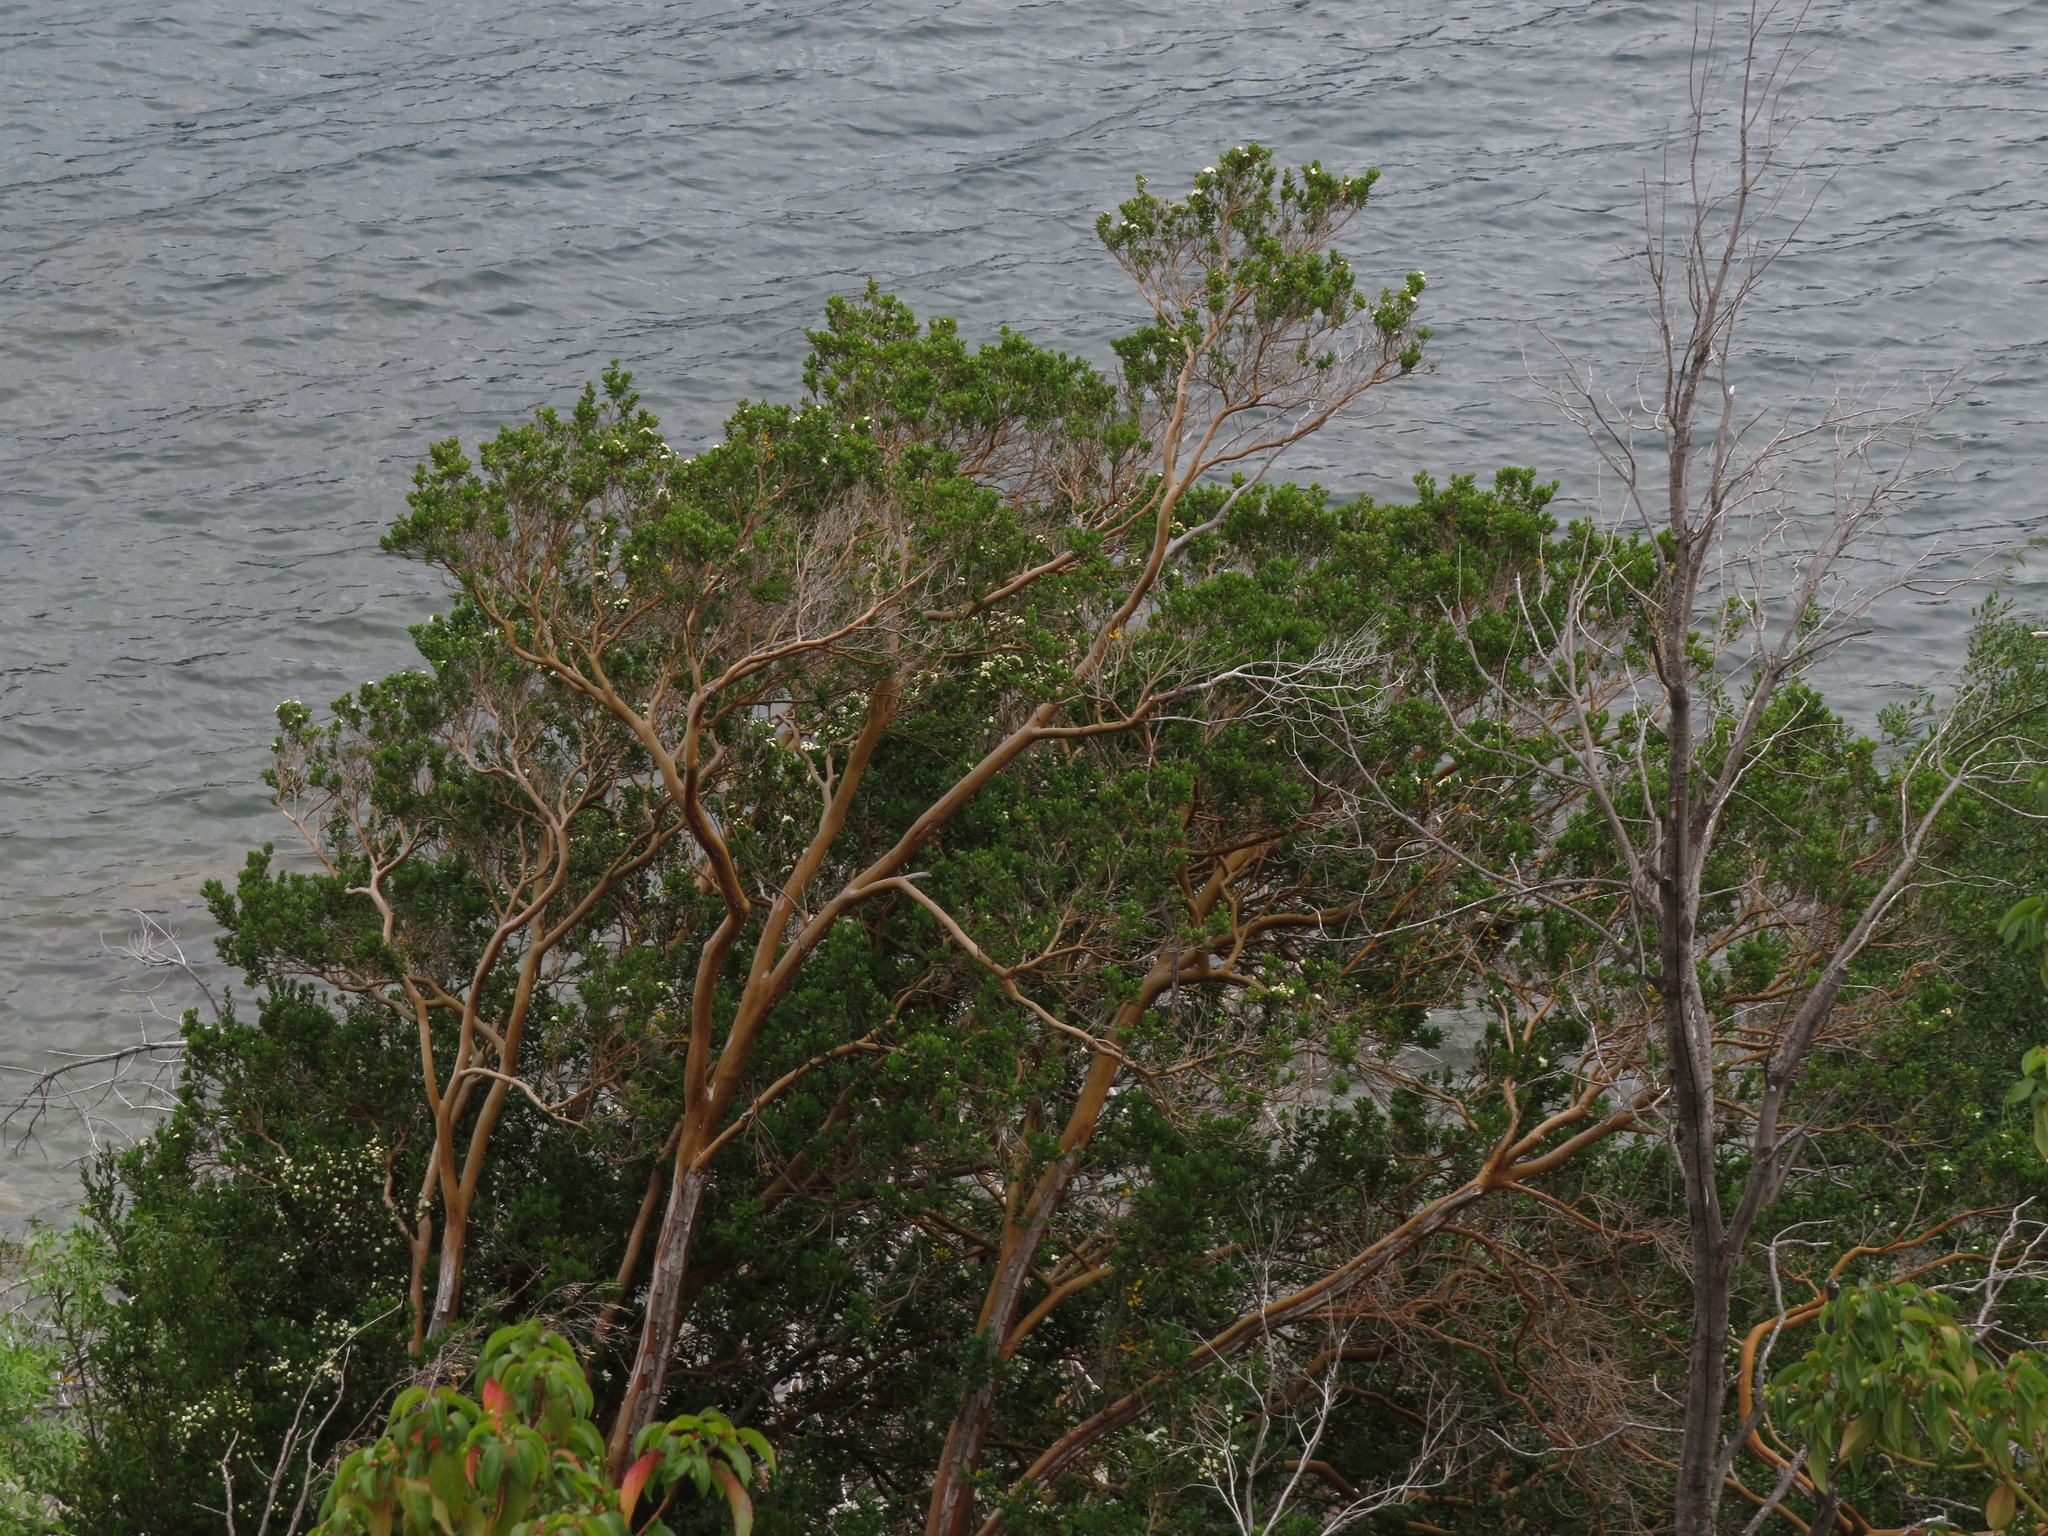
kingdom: Plantae
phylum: Tracheophyta
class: Magnoliopsida
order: Myrtales
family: Myrtaceae
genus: Luma
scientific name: Luma apiculata
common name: Chilean myrtle
